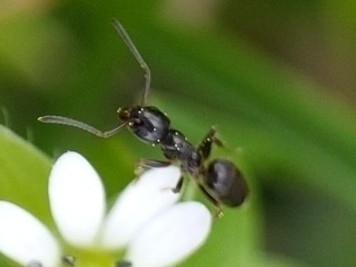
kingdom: Animalia
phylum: Arthropoda
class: Insecta
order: Hymenoptera
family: Formicidae
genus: Tapinoma
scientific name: Tapinoma sessile
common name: Odorous house ant
